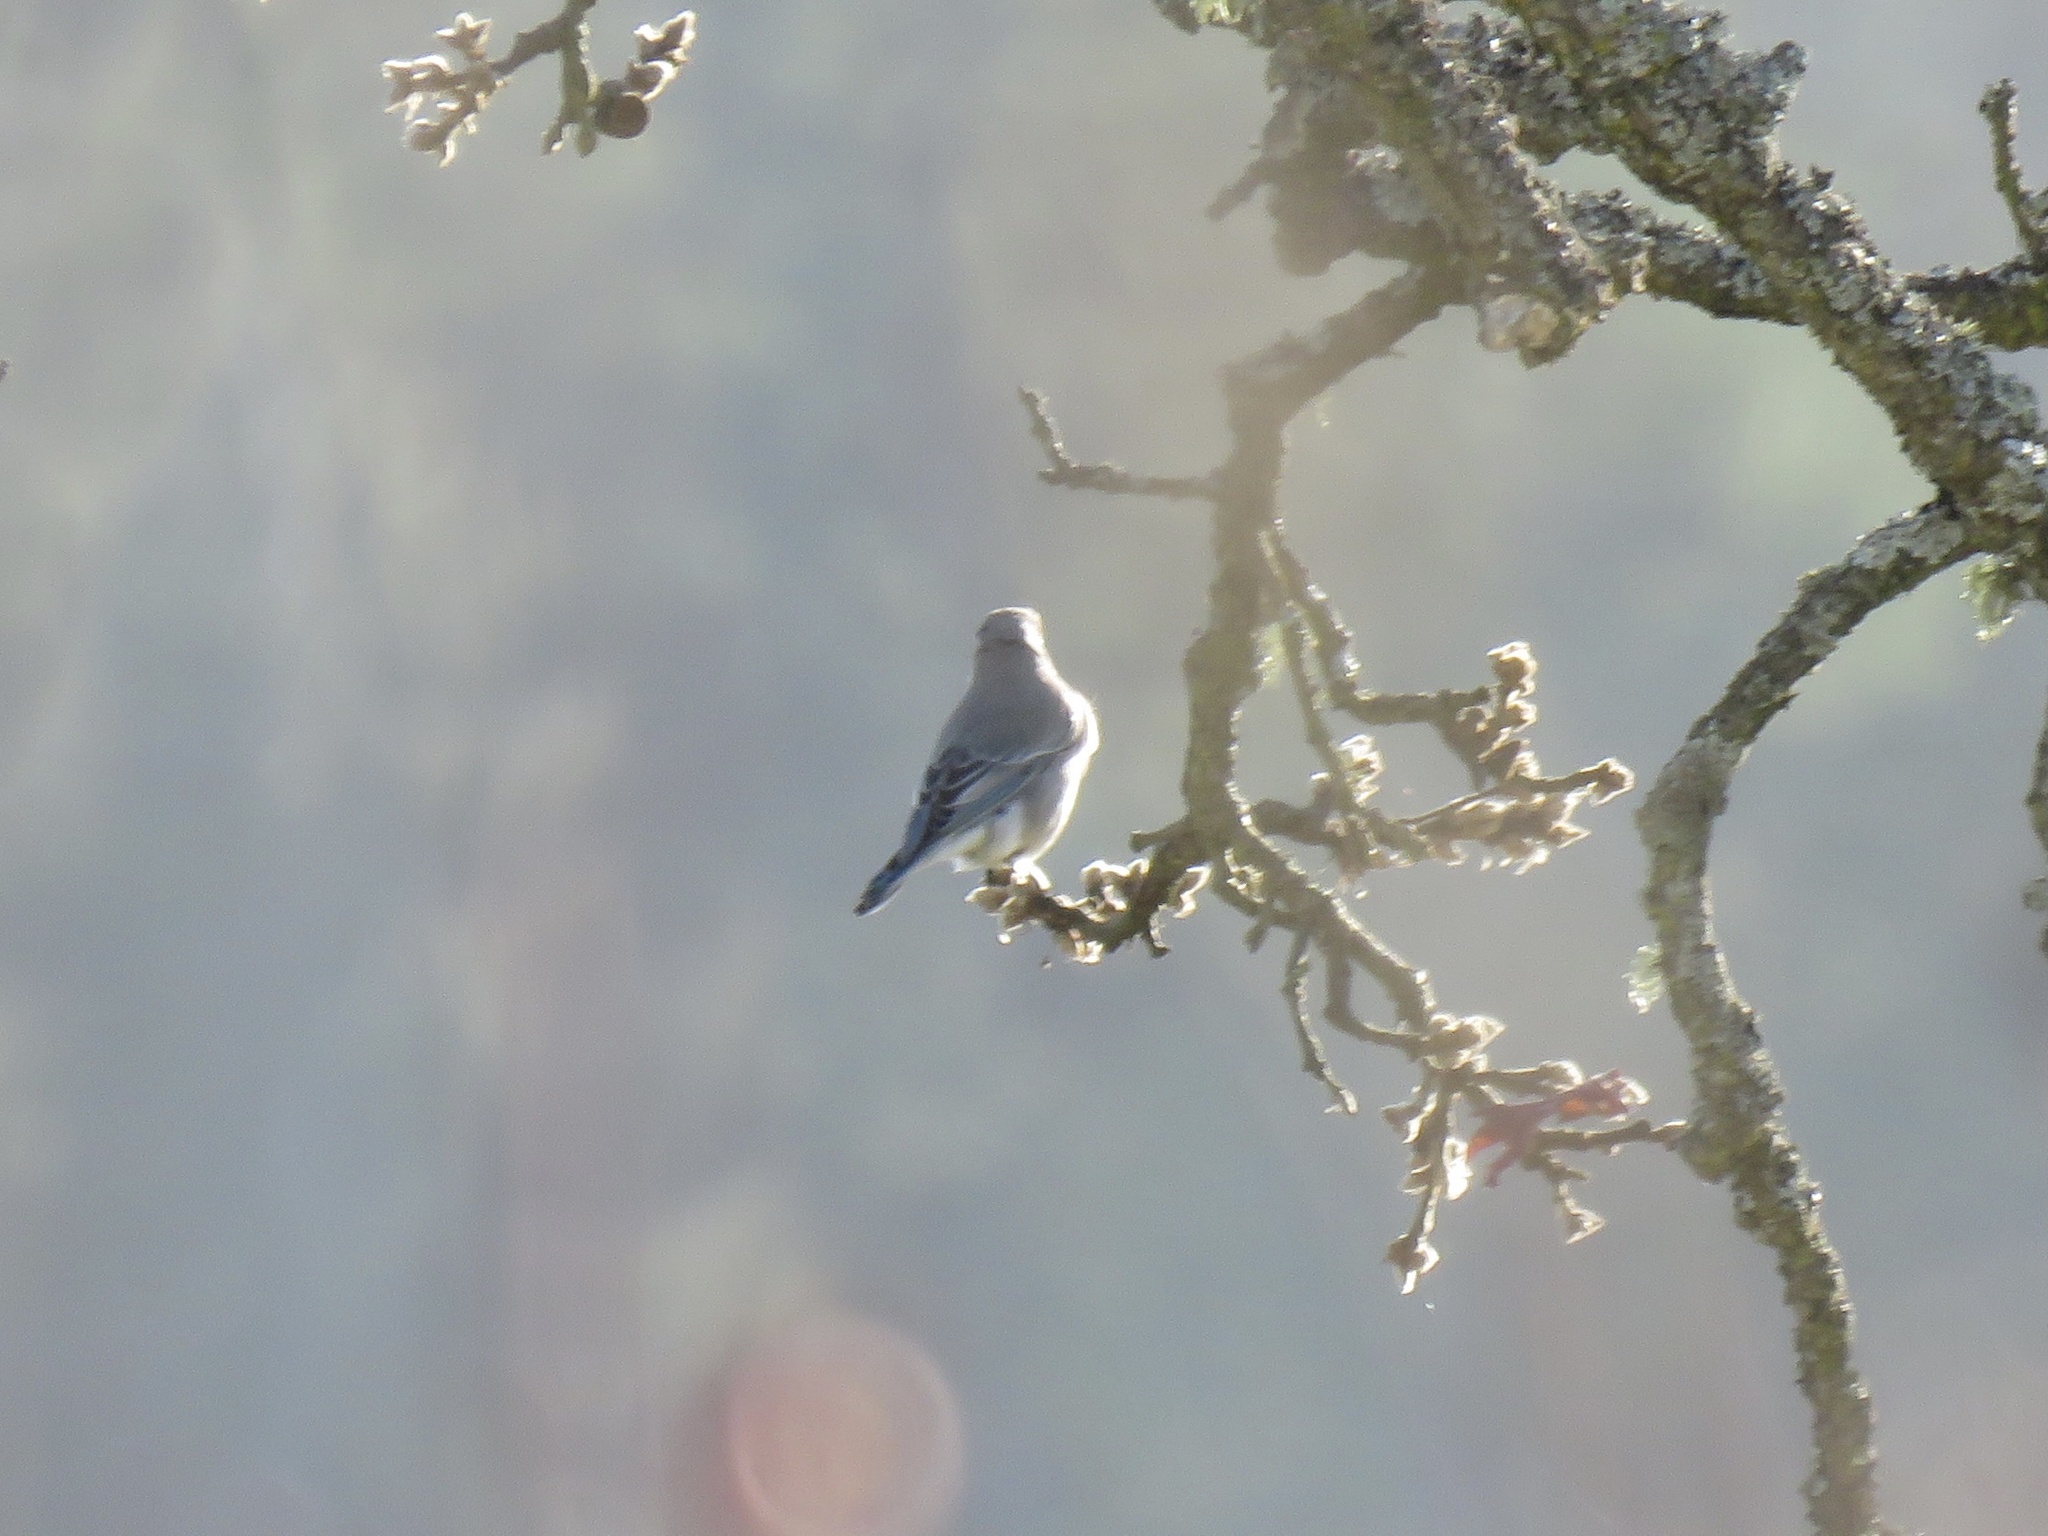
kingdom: Animalia
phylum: Chordata
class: Aves
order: Passeriformes
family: Turdidae
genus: Sialia
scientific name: Sialia currucoides
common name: Mountain bluebird
